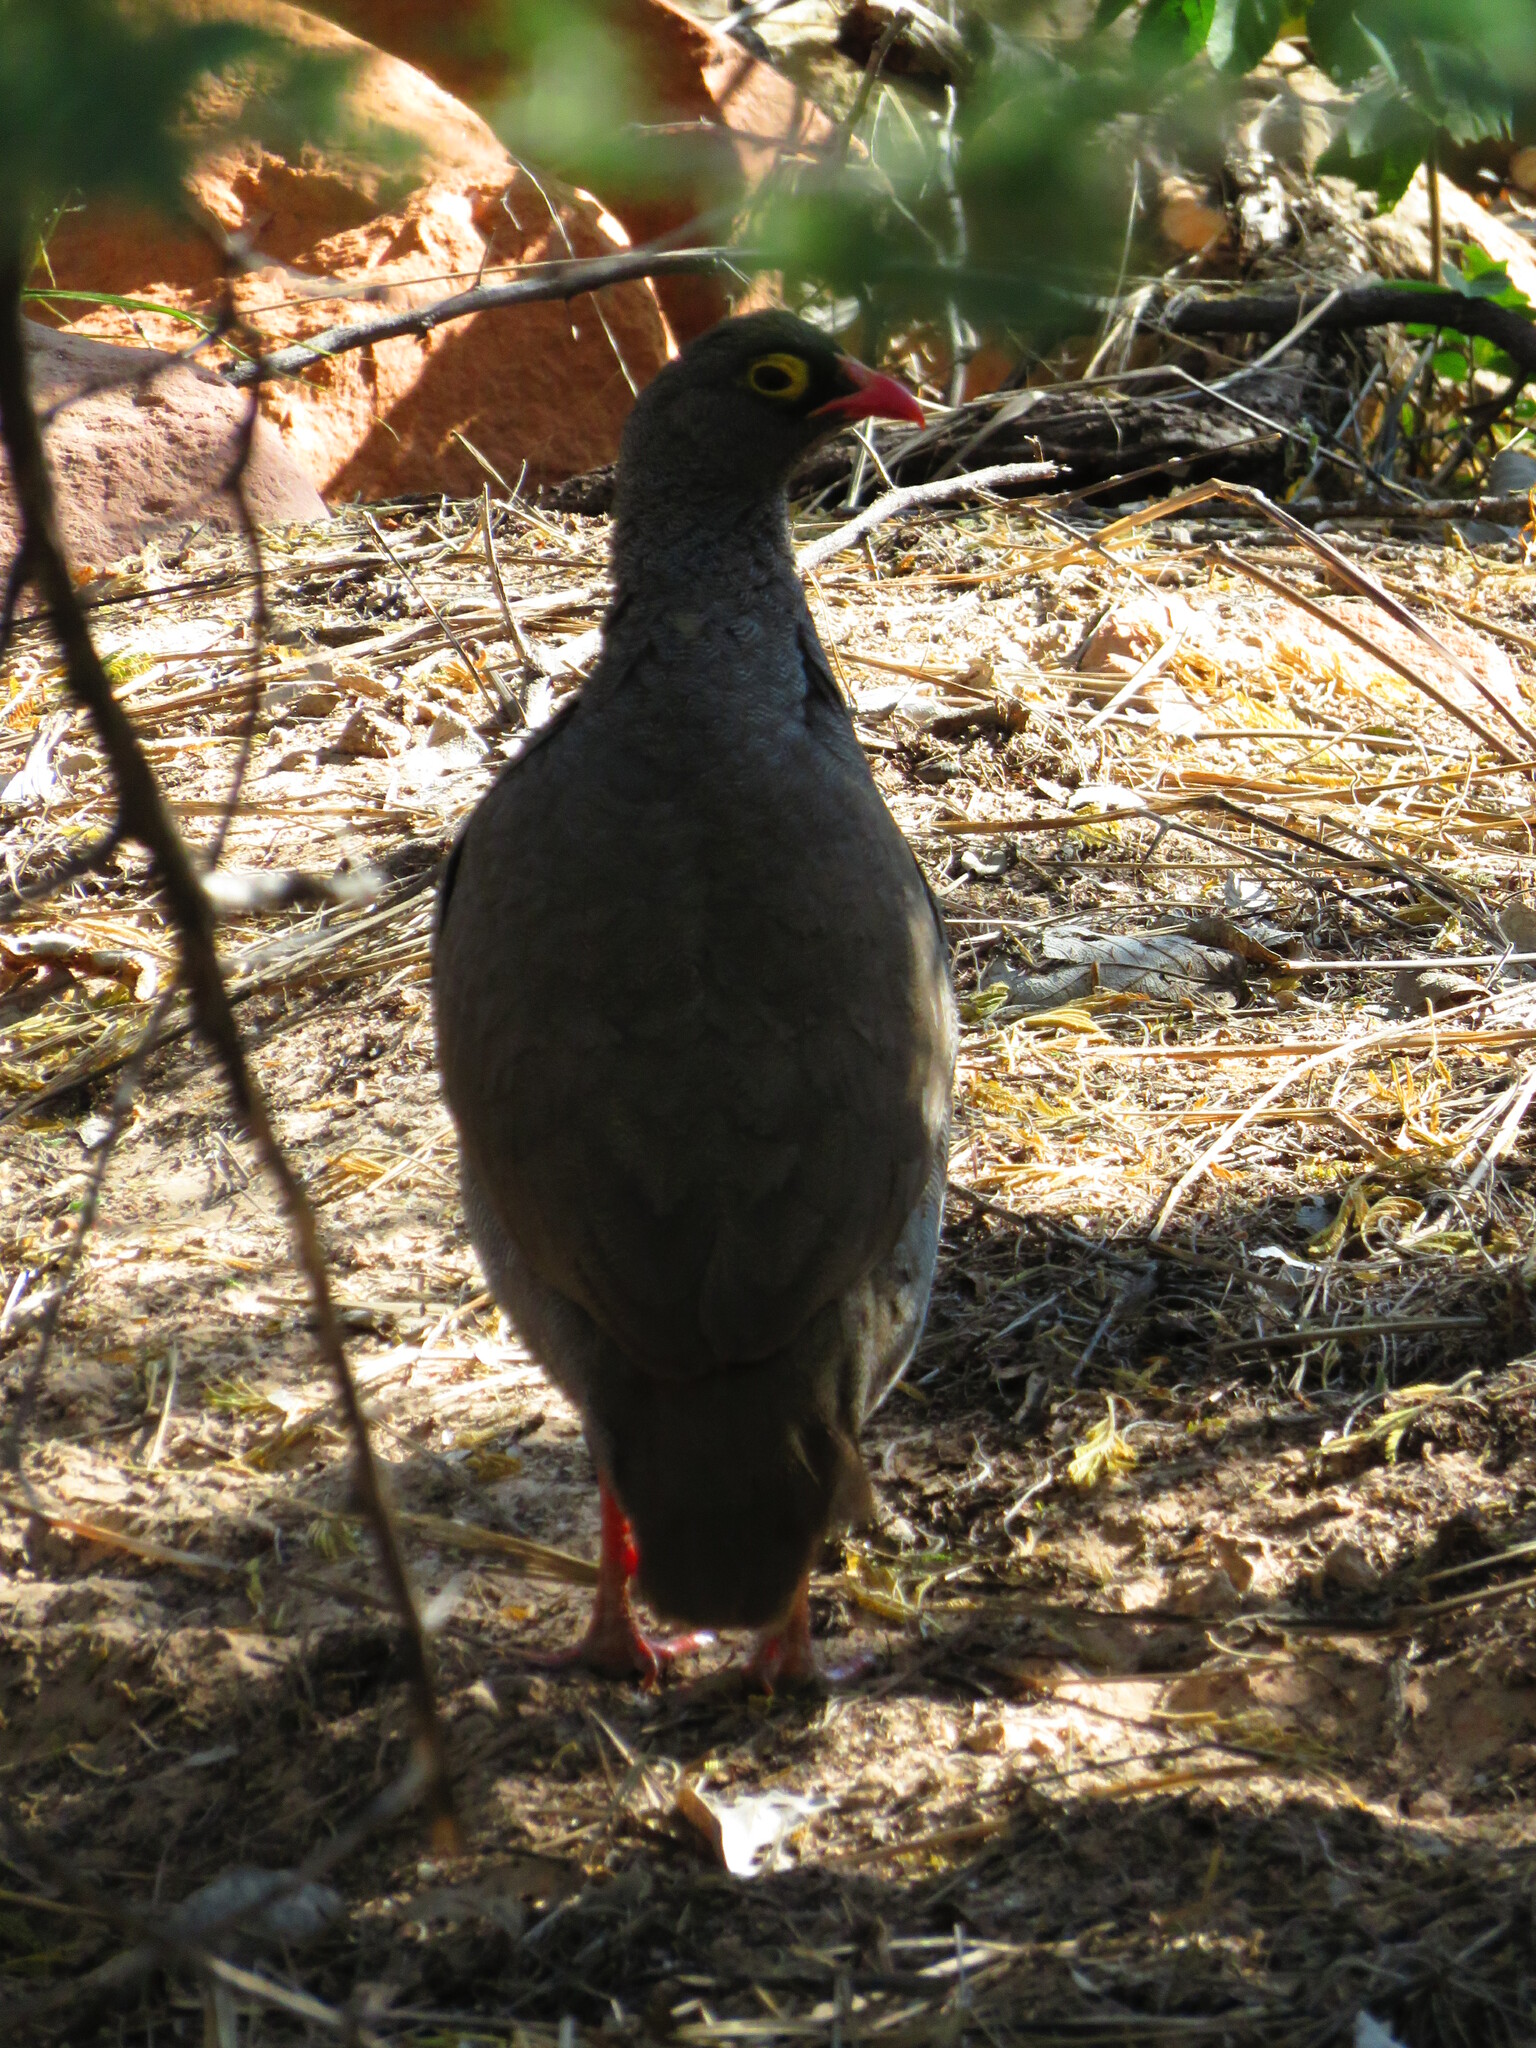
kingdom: Animalia
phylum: Chordata
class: Aves
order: Galliformes
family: Phasianidae
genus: Pternistis
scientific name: Pternistis adspersus
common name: Red-billed spurfowl
